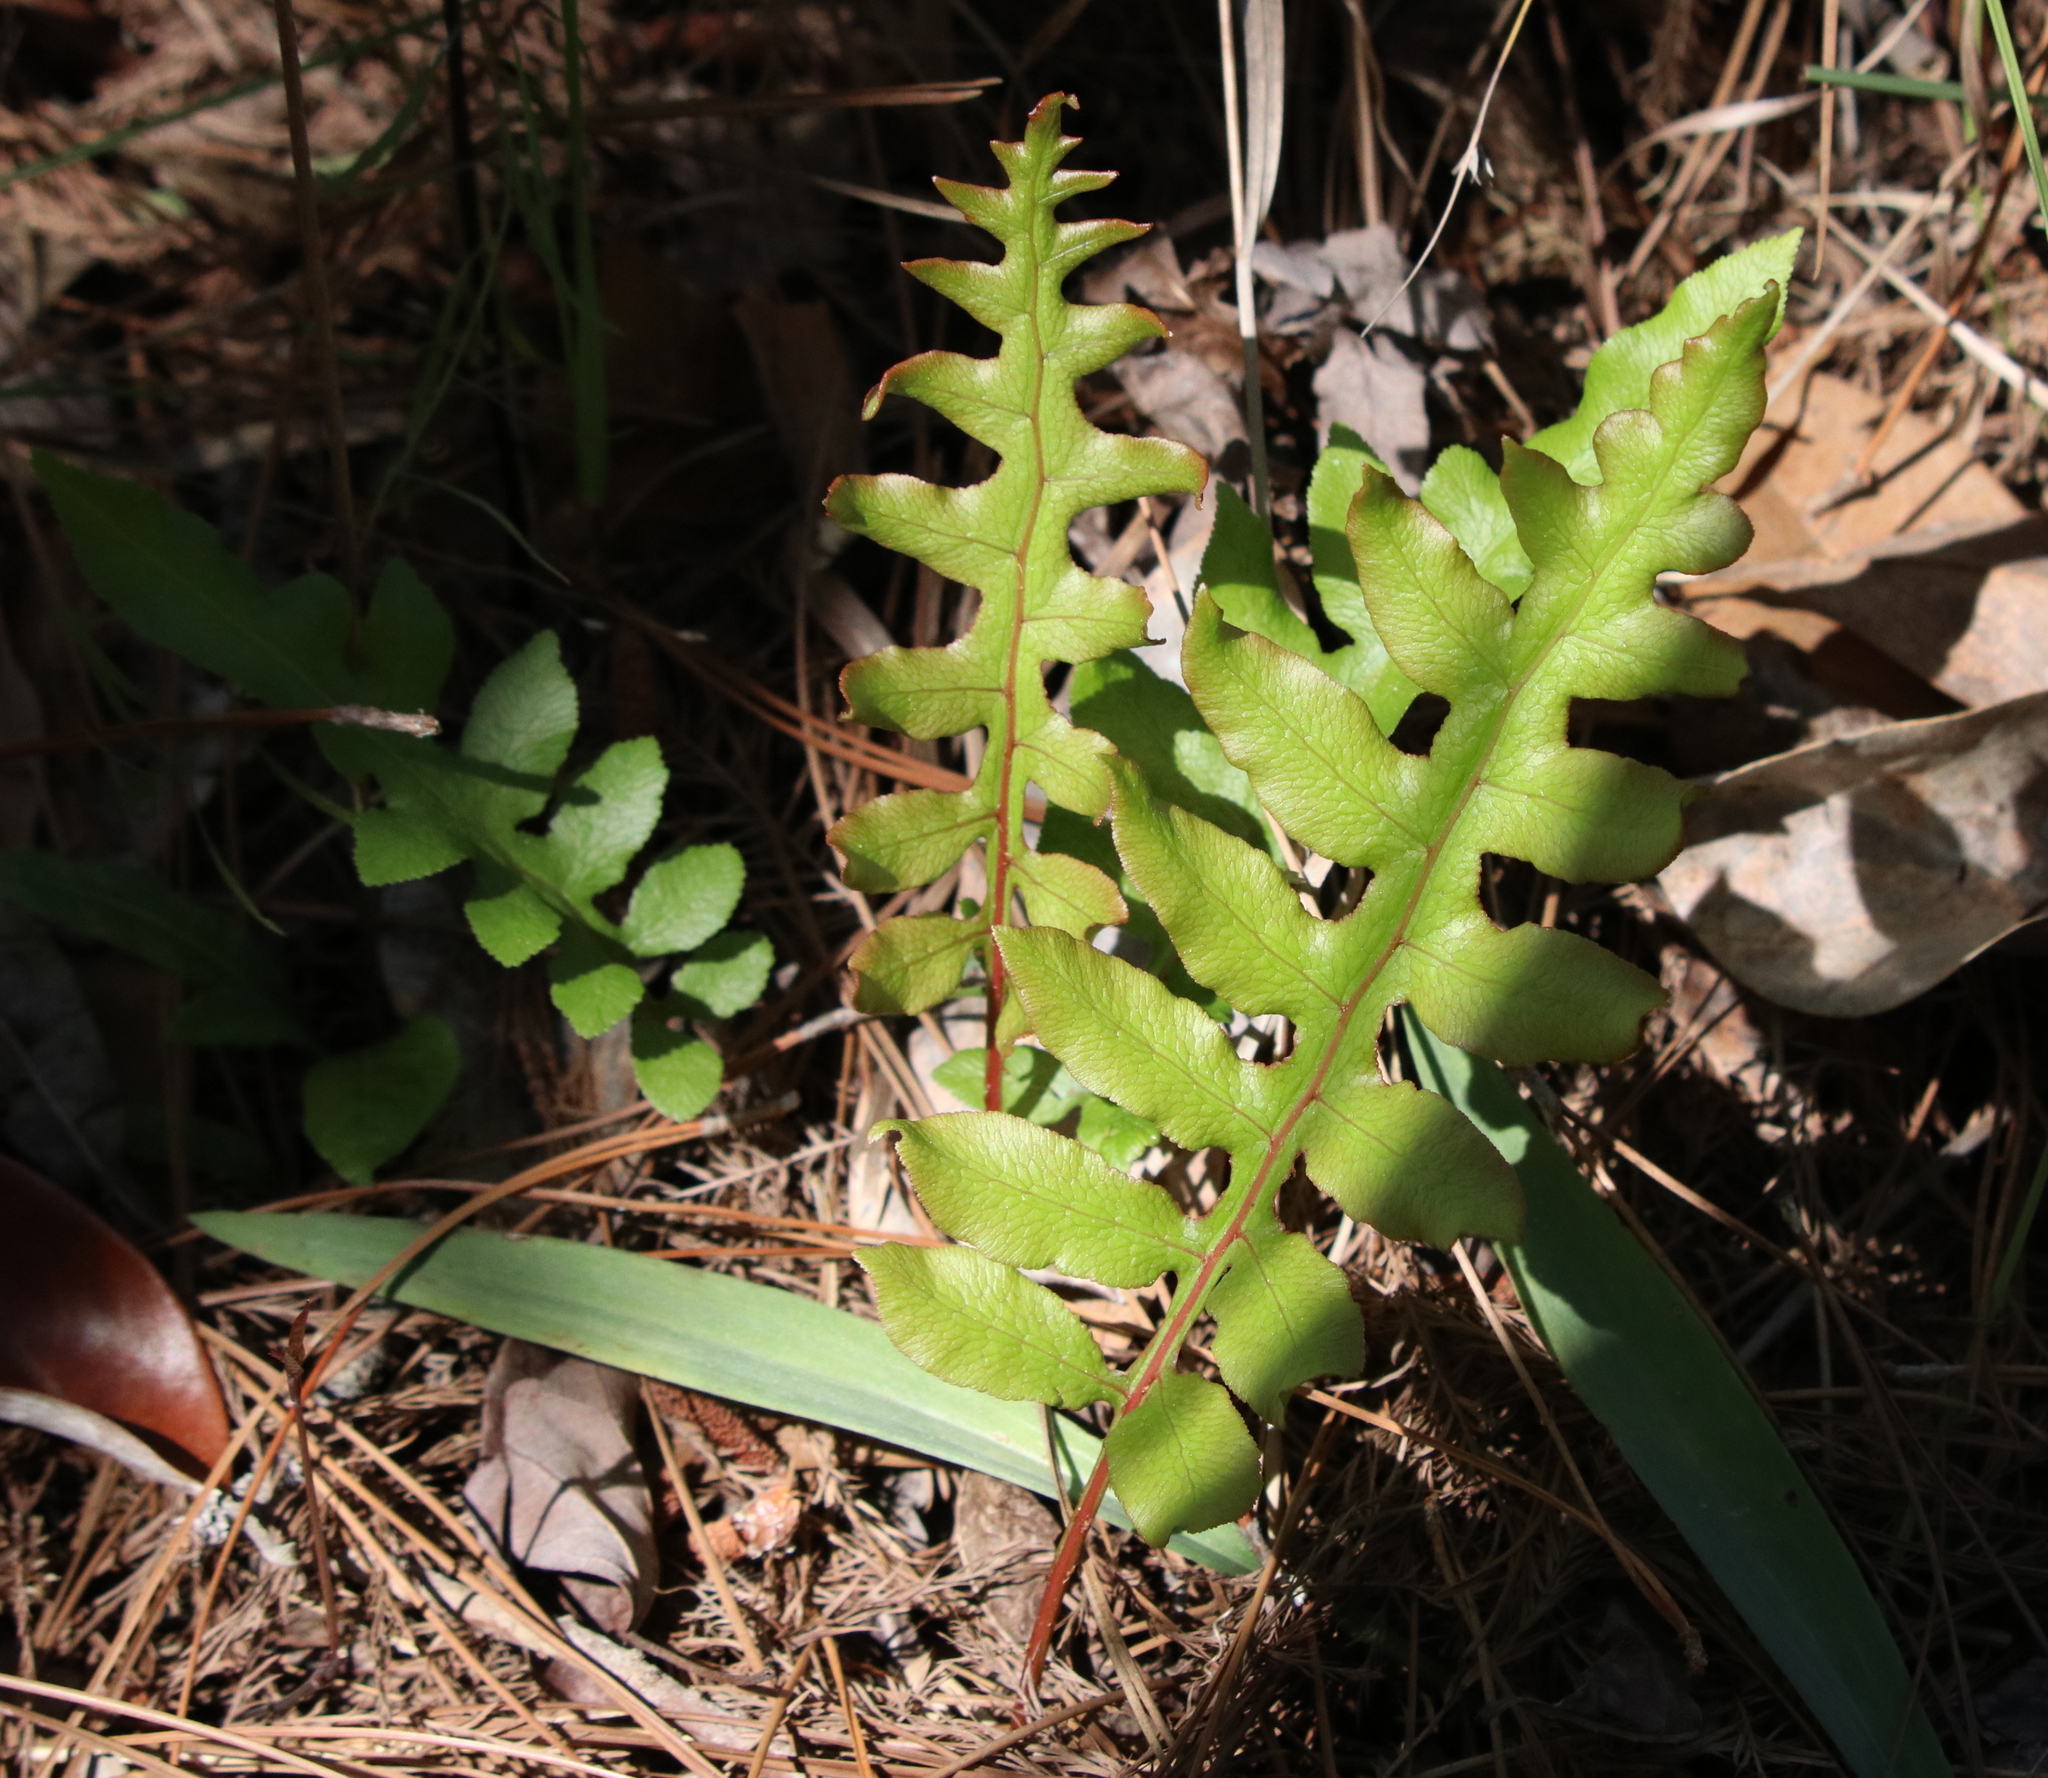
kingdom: Plantae
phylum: Tracheophyta
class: Polypodiopsida
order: Polypodiales
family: Blechnaceae
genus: Lorinseria
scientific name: Lorinseria areolata
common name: Dwarf chain fern
